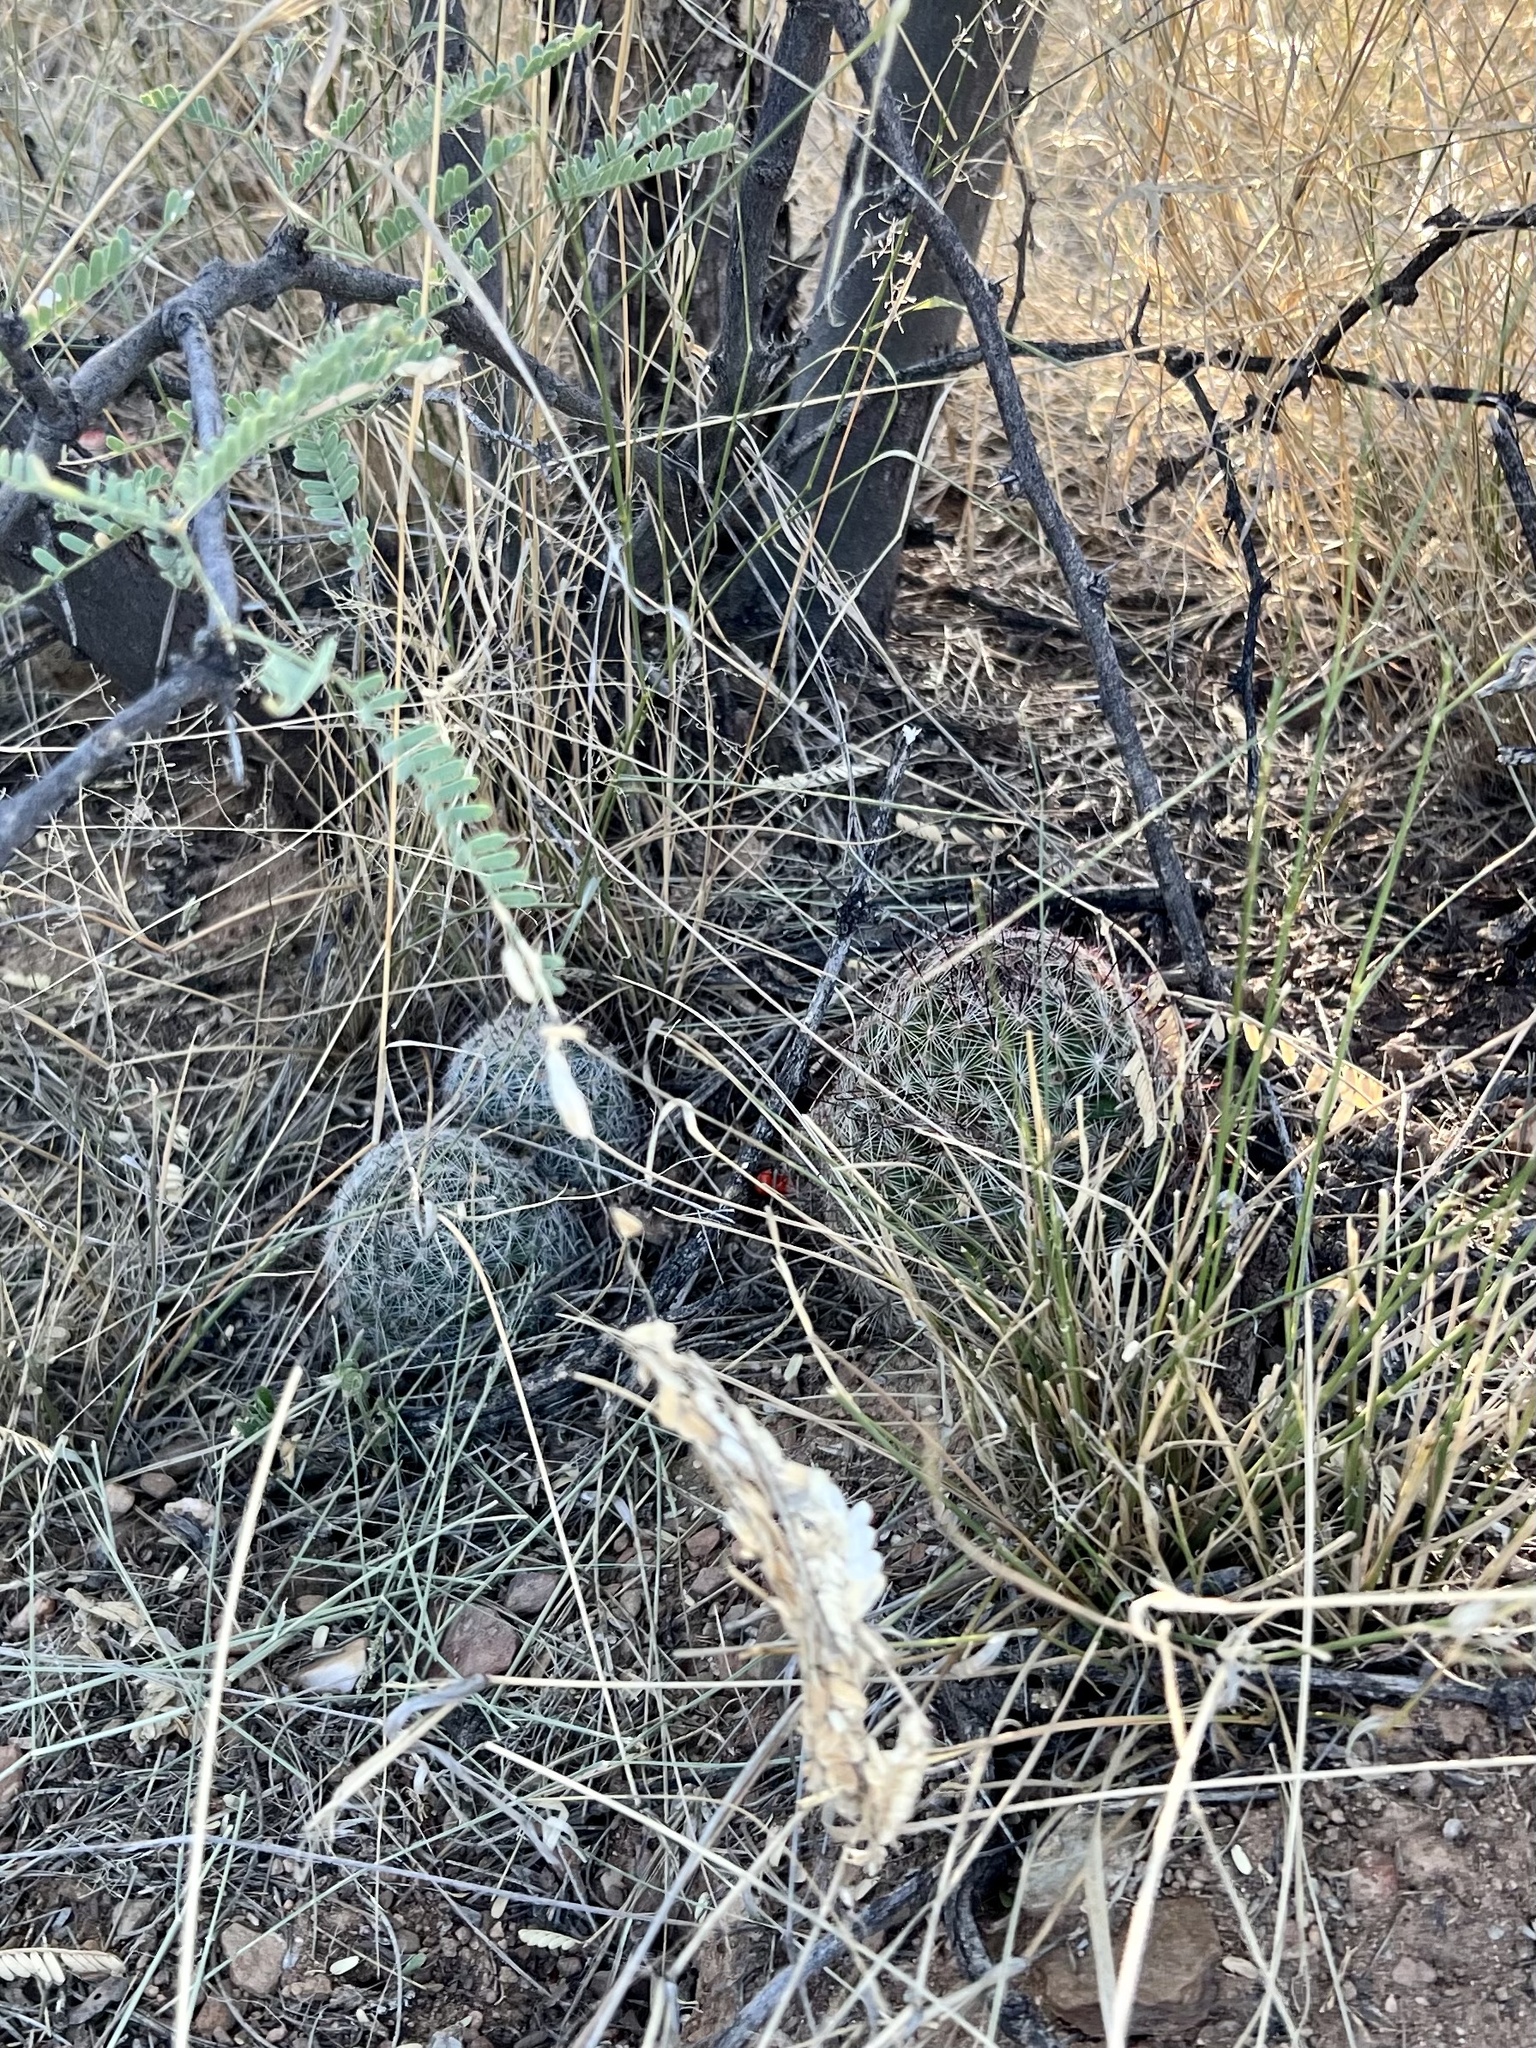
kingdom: Plantae
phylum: Tracheophyta
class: Magnoliopsida
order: Caryophyllales
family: Cactaceae
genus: Cochemiea
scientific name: Cochemiea grahamii
